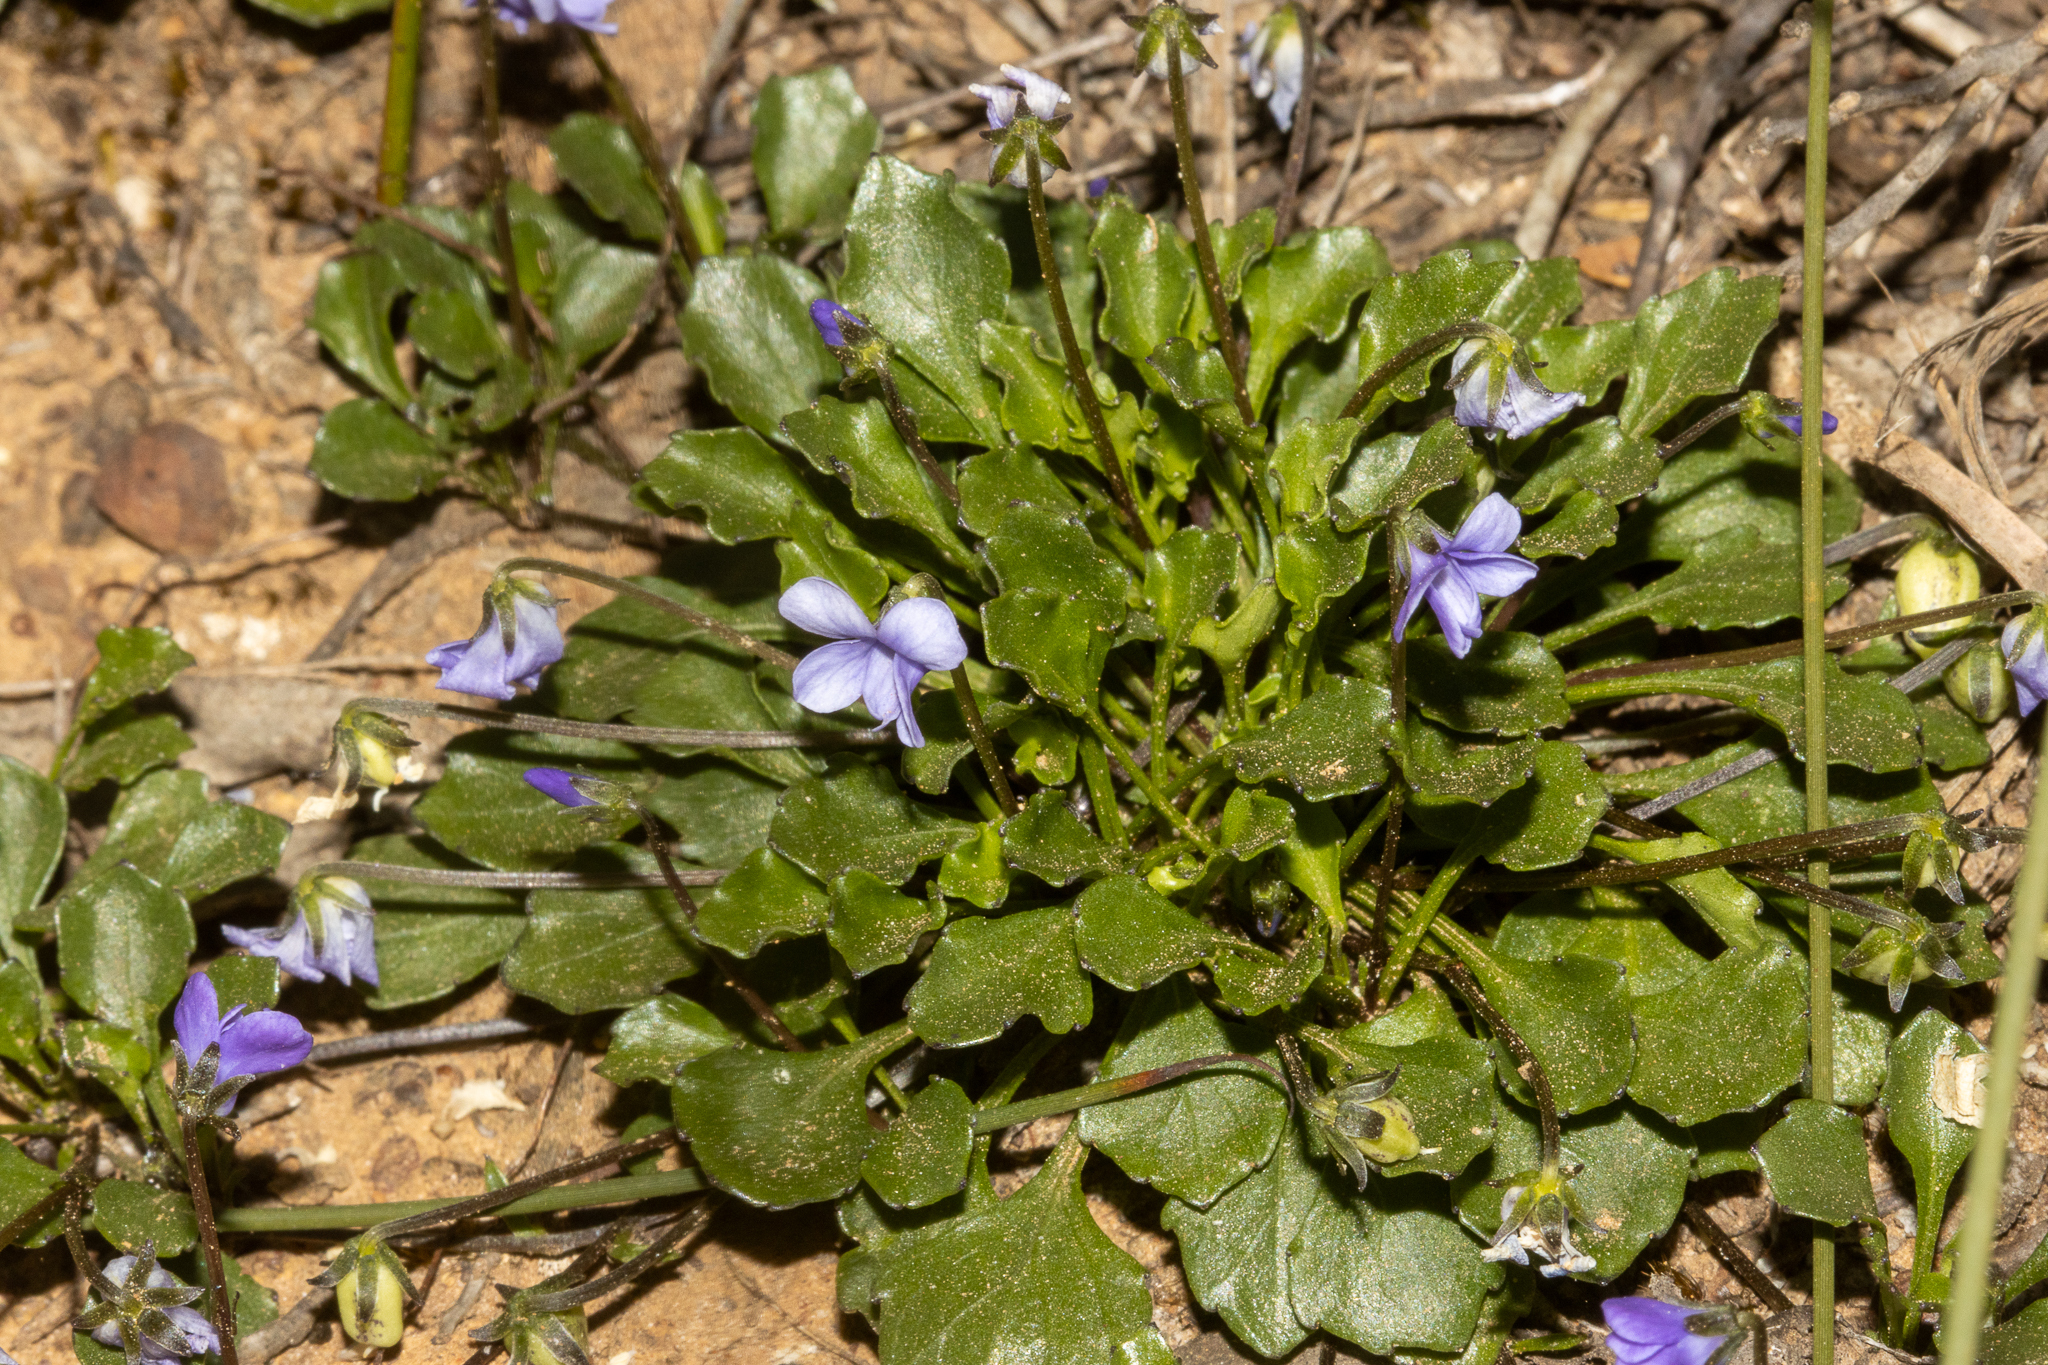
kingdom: Plantae
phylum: Tracheophyta
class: Magnoliopsida
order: Malpighiales
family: Violaceae
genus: Viola
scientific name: Viola sieberiana
